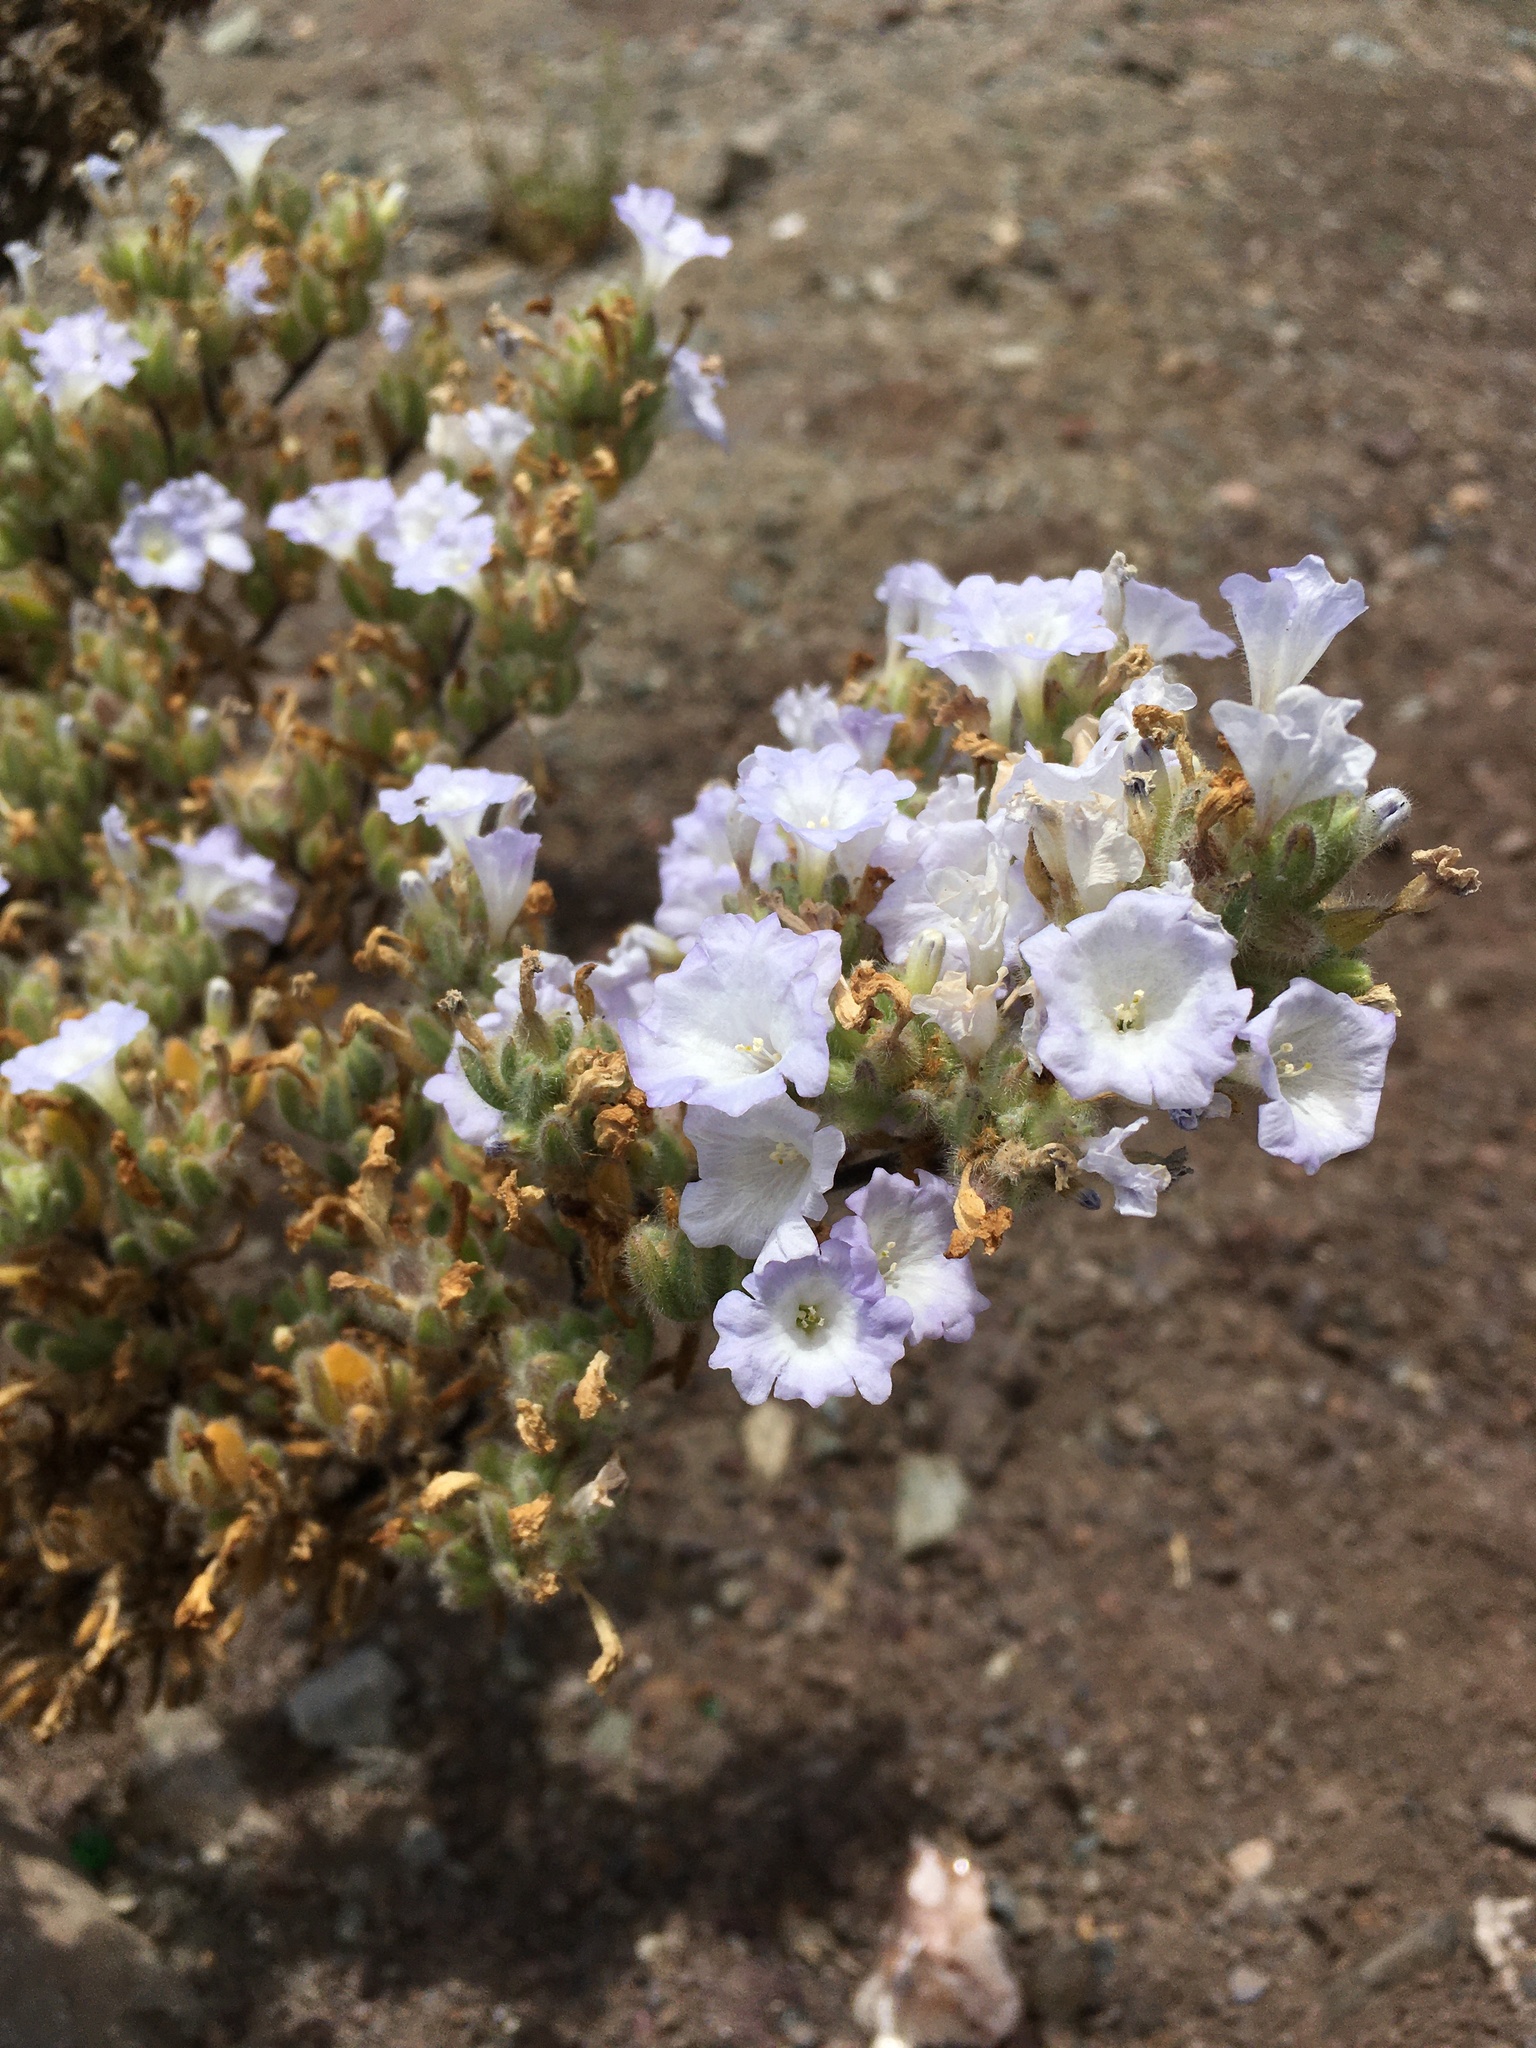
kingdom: Plantae
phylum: Tracheophyta
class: Magnoliopsida
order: Solanales
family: Solanaceae
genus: Nolana
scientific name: Nolana aplocaryoides
